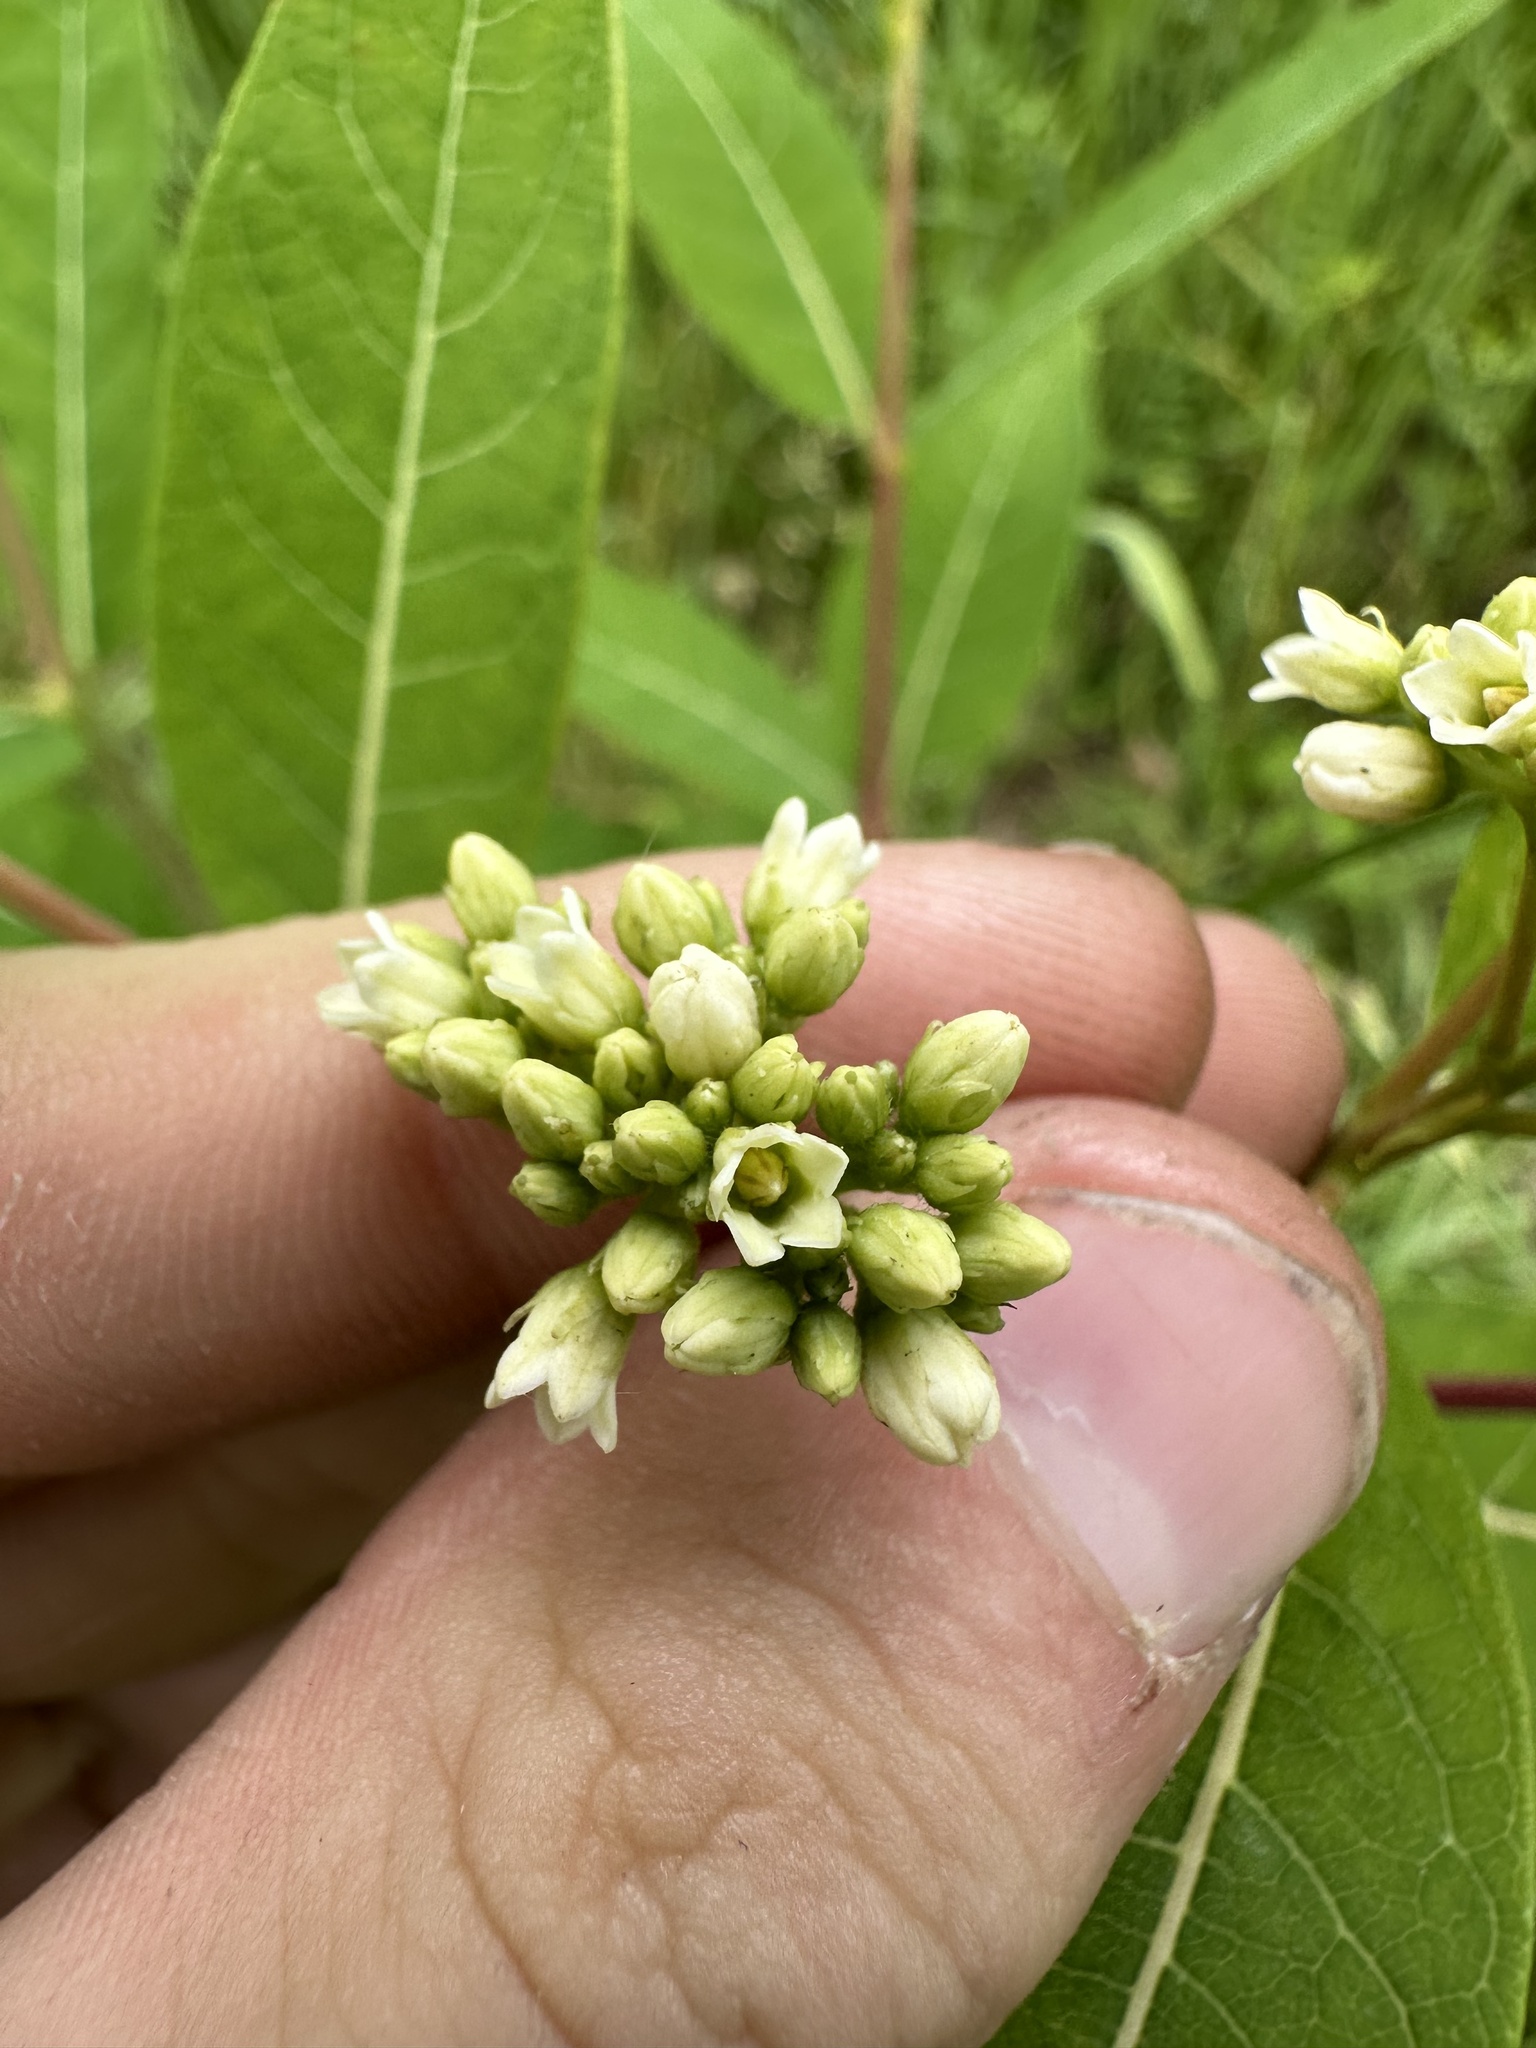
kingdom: Plantae
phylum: Tracheophyta
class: Magnoliopsida
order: Gentianales
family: Apocynaceae
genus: Apocynum
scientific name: Apocynum cannabinum
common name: Hemp dogbane
